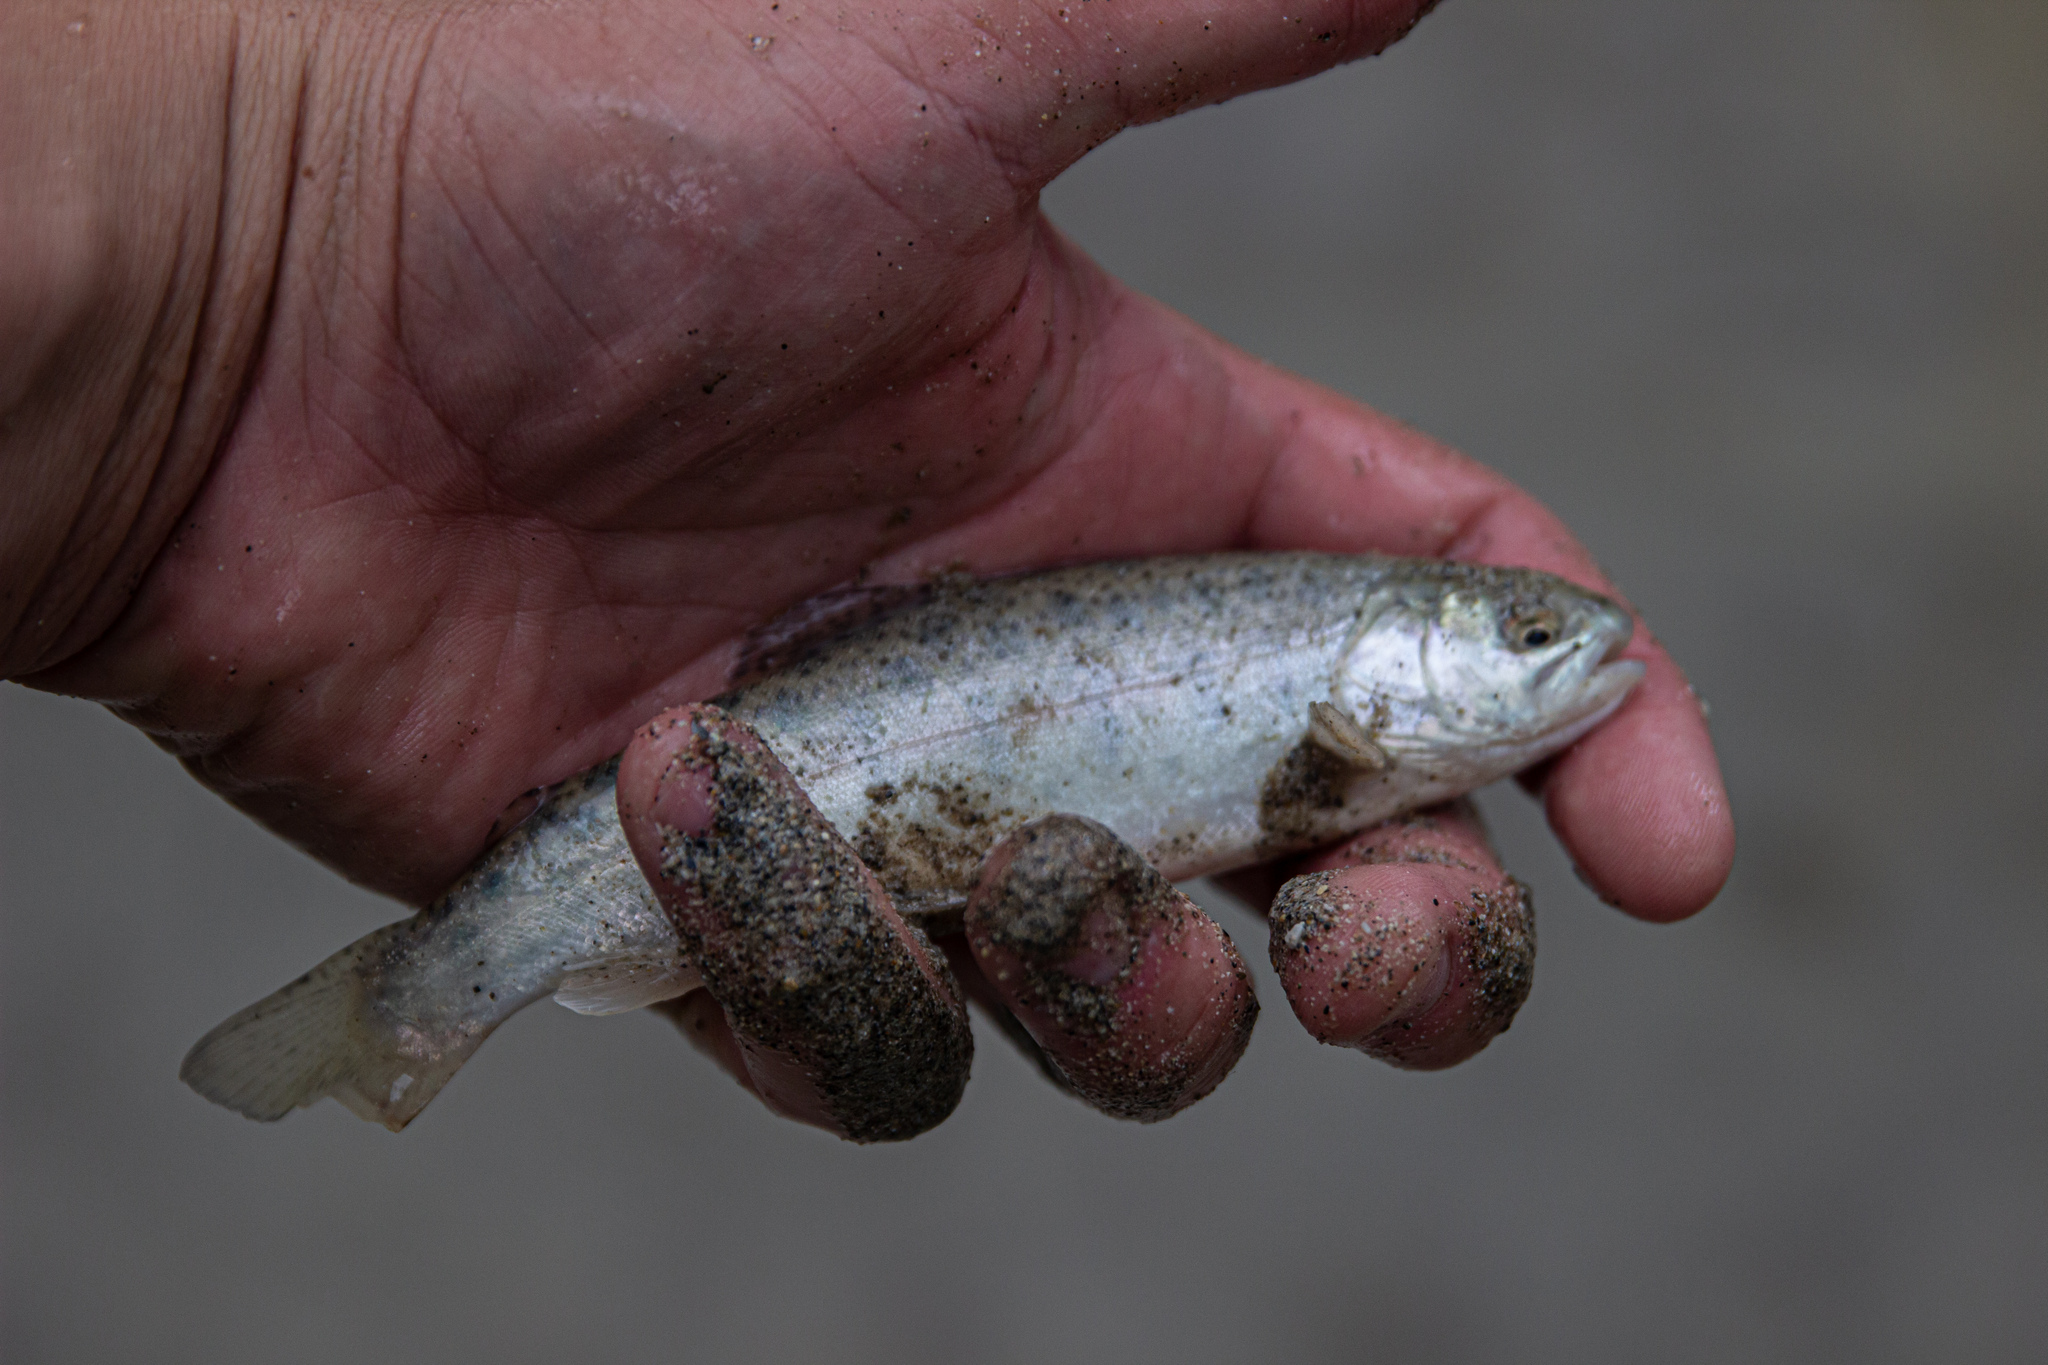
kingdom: Animalia
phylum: Chordata
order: Salmoniformes
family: Salmonidae
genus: Oncorhynchus
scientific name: Oncorhynchus mykiss
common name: Rainbow trout
